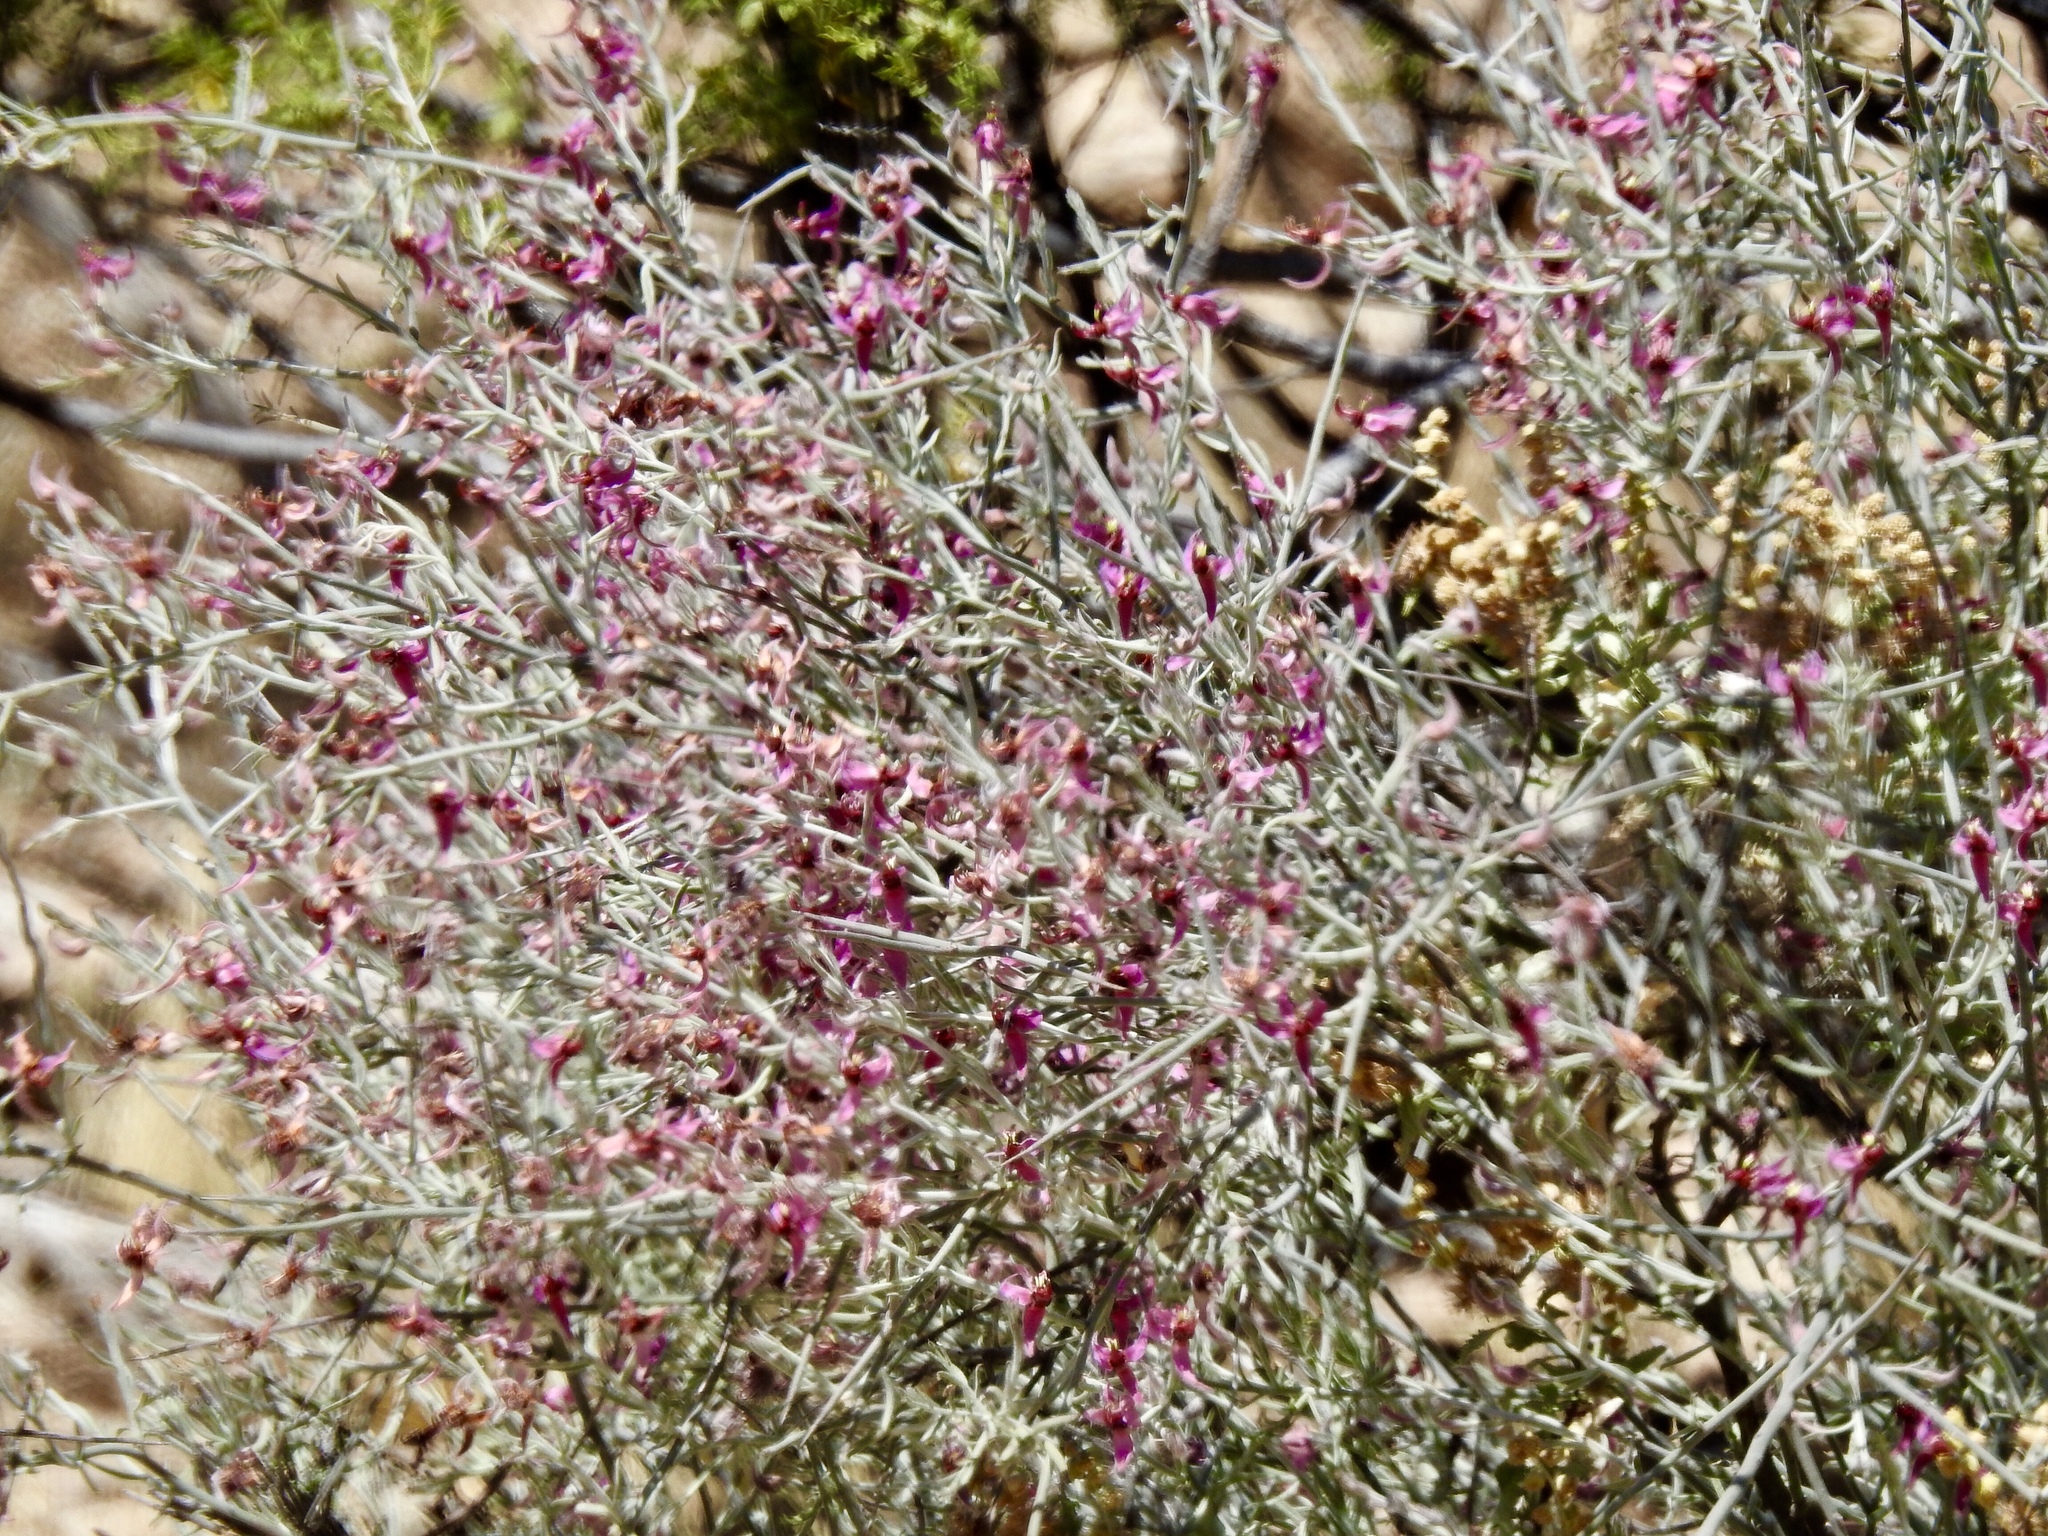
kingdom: Plantae
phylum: Tracheophyta
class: Magnoliopsida
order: Zygophyllales
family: Krameriaceae
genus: Krameria
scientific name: Krameria bicolor
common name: White ratany
